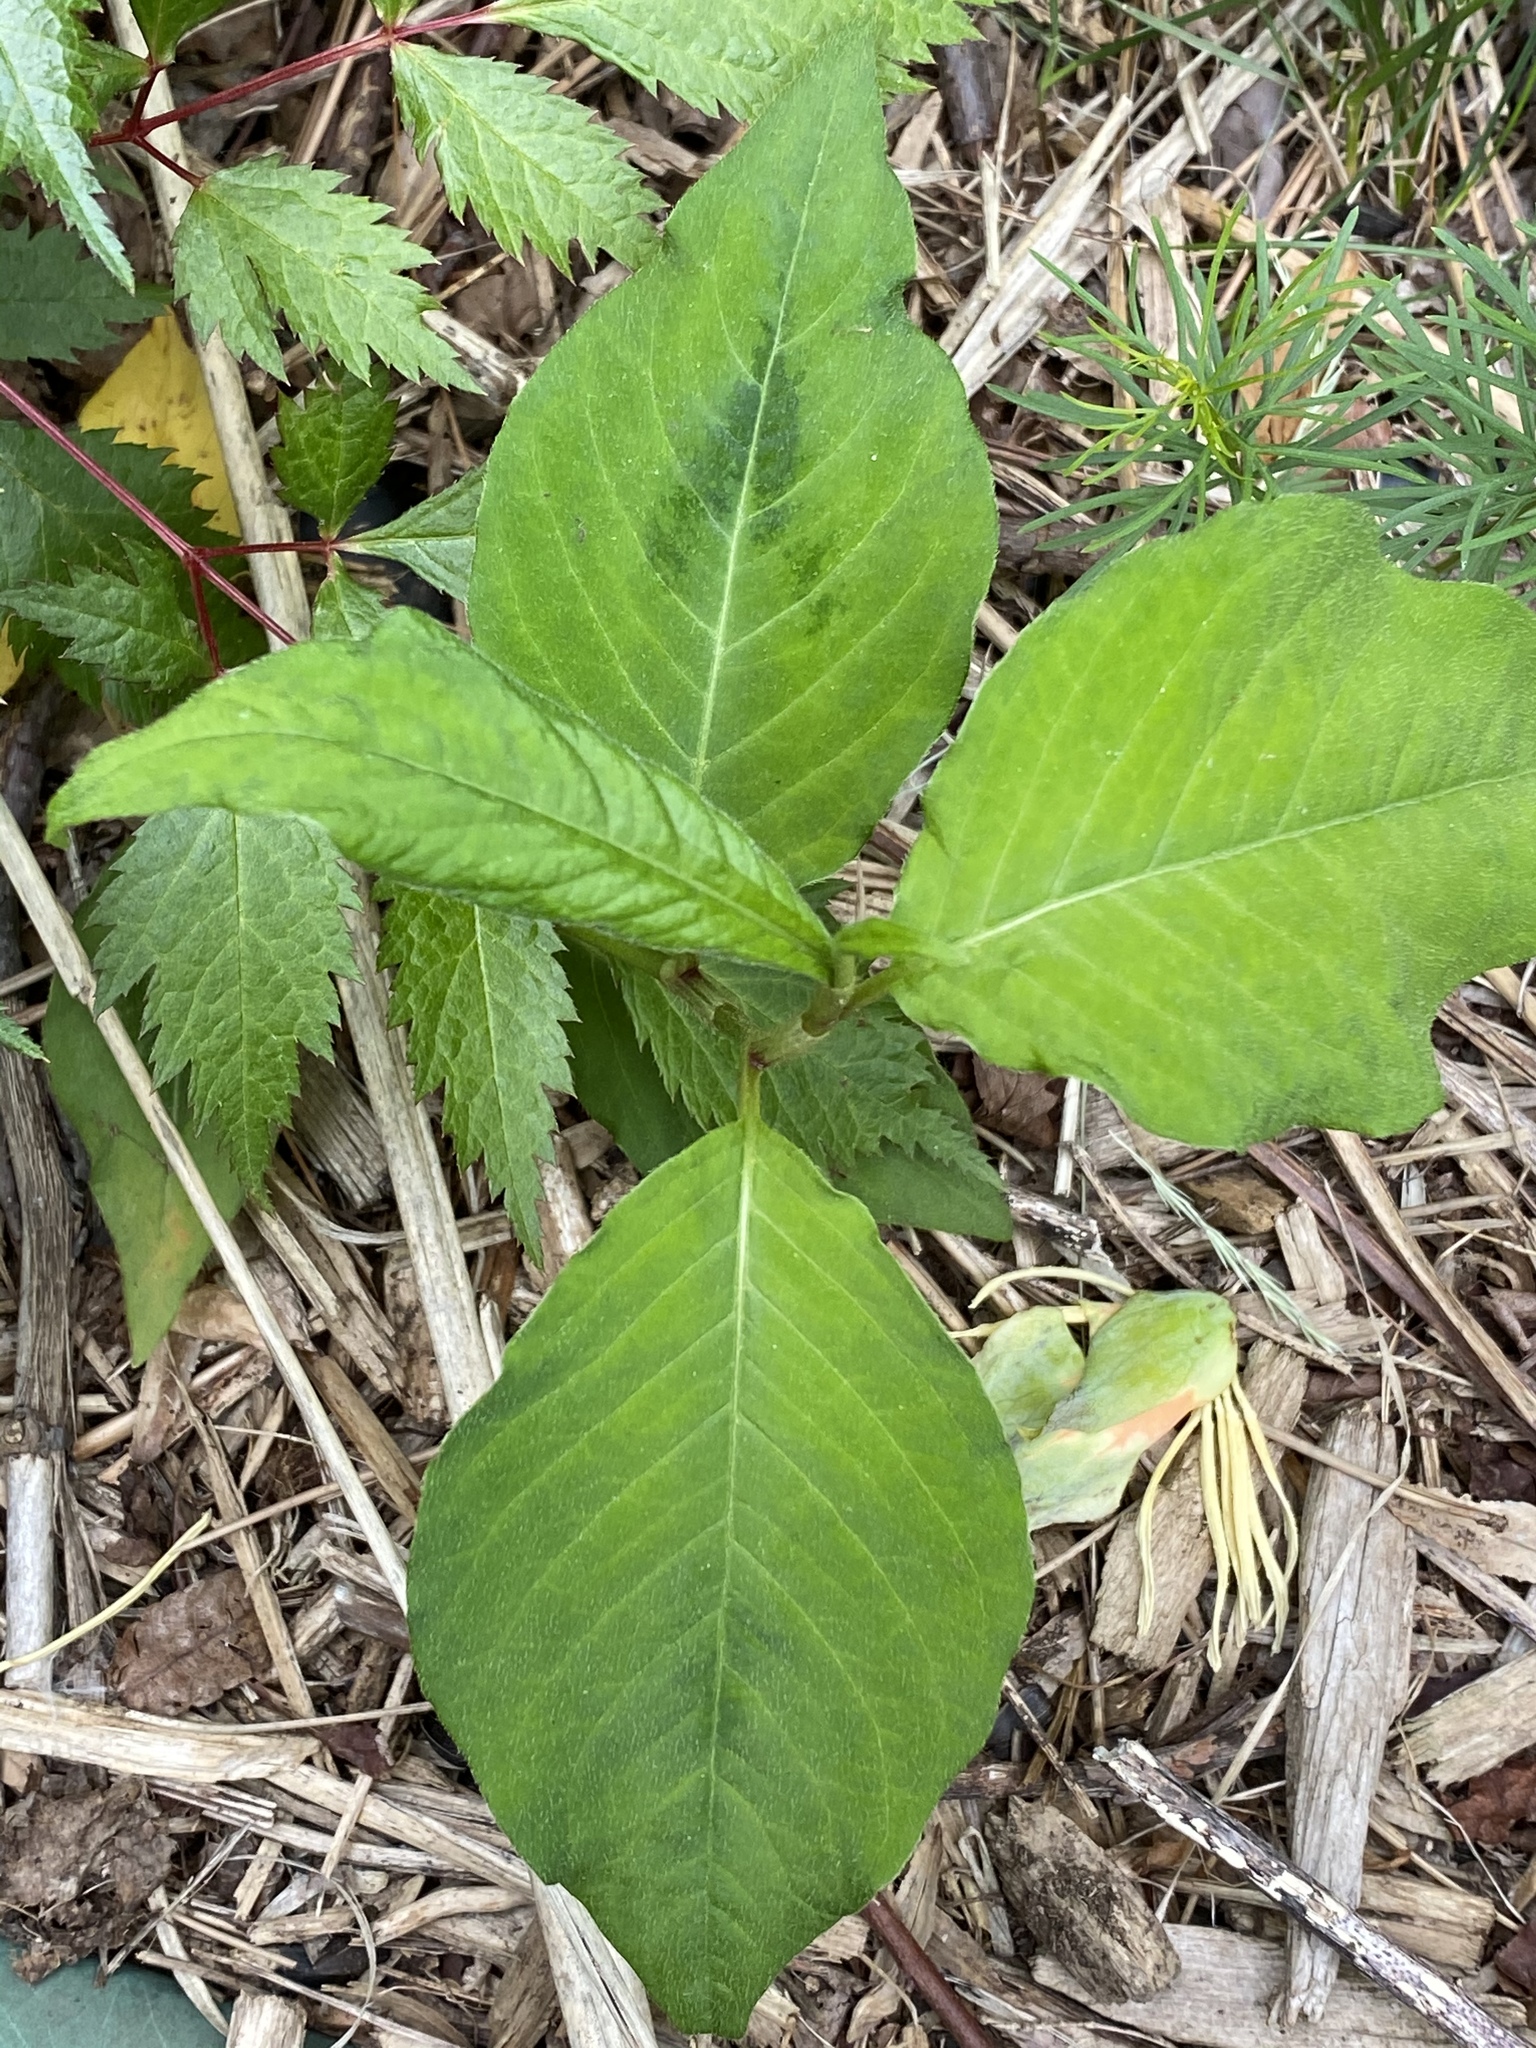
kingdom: Plantae
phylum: Tracheophyta
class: Magnoliopsida
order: Caryophyllales
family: Polygonaceae
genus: Persicaria
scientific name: Persicaria virginiana
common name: Jumpseed
